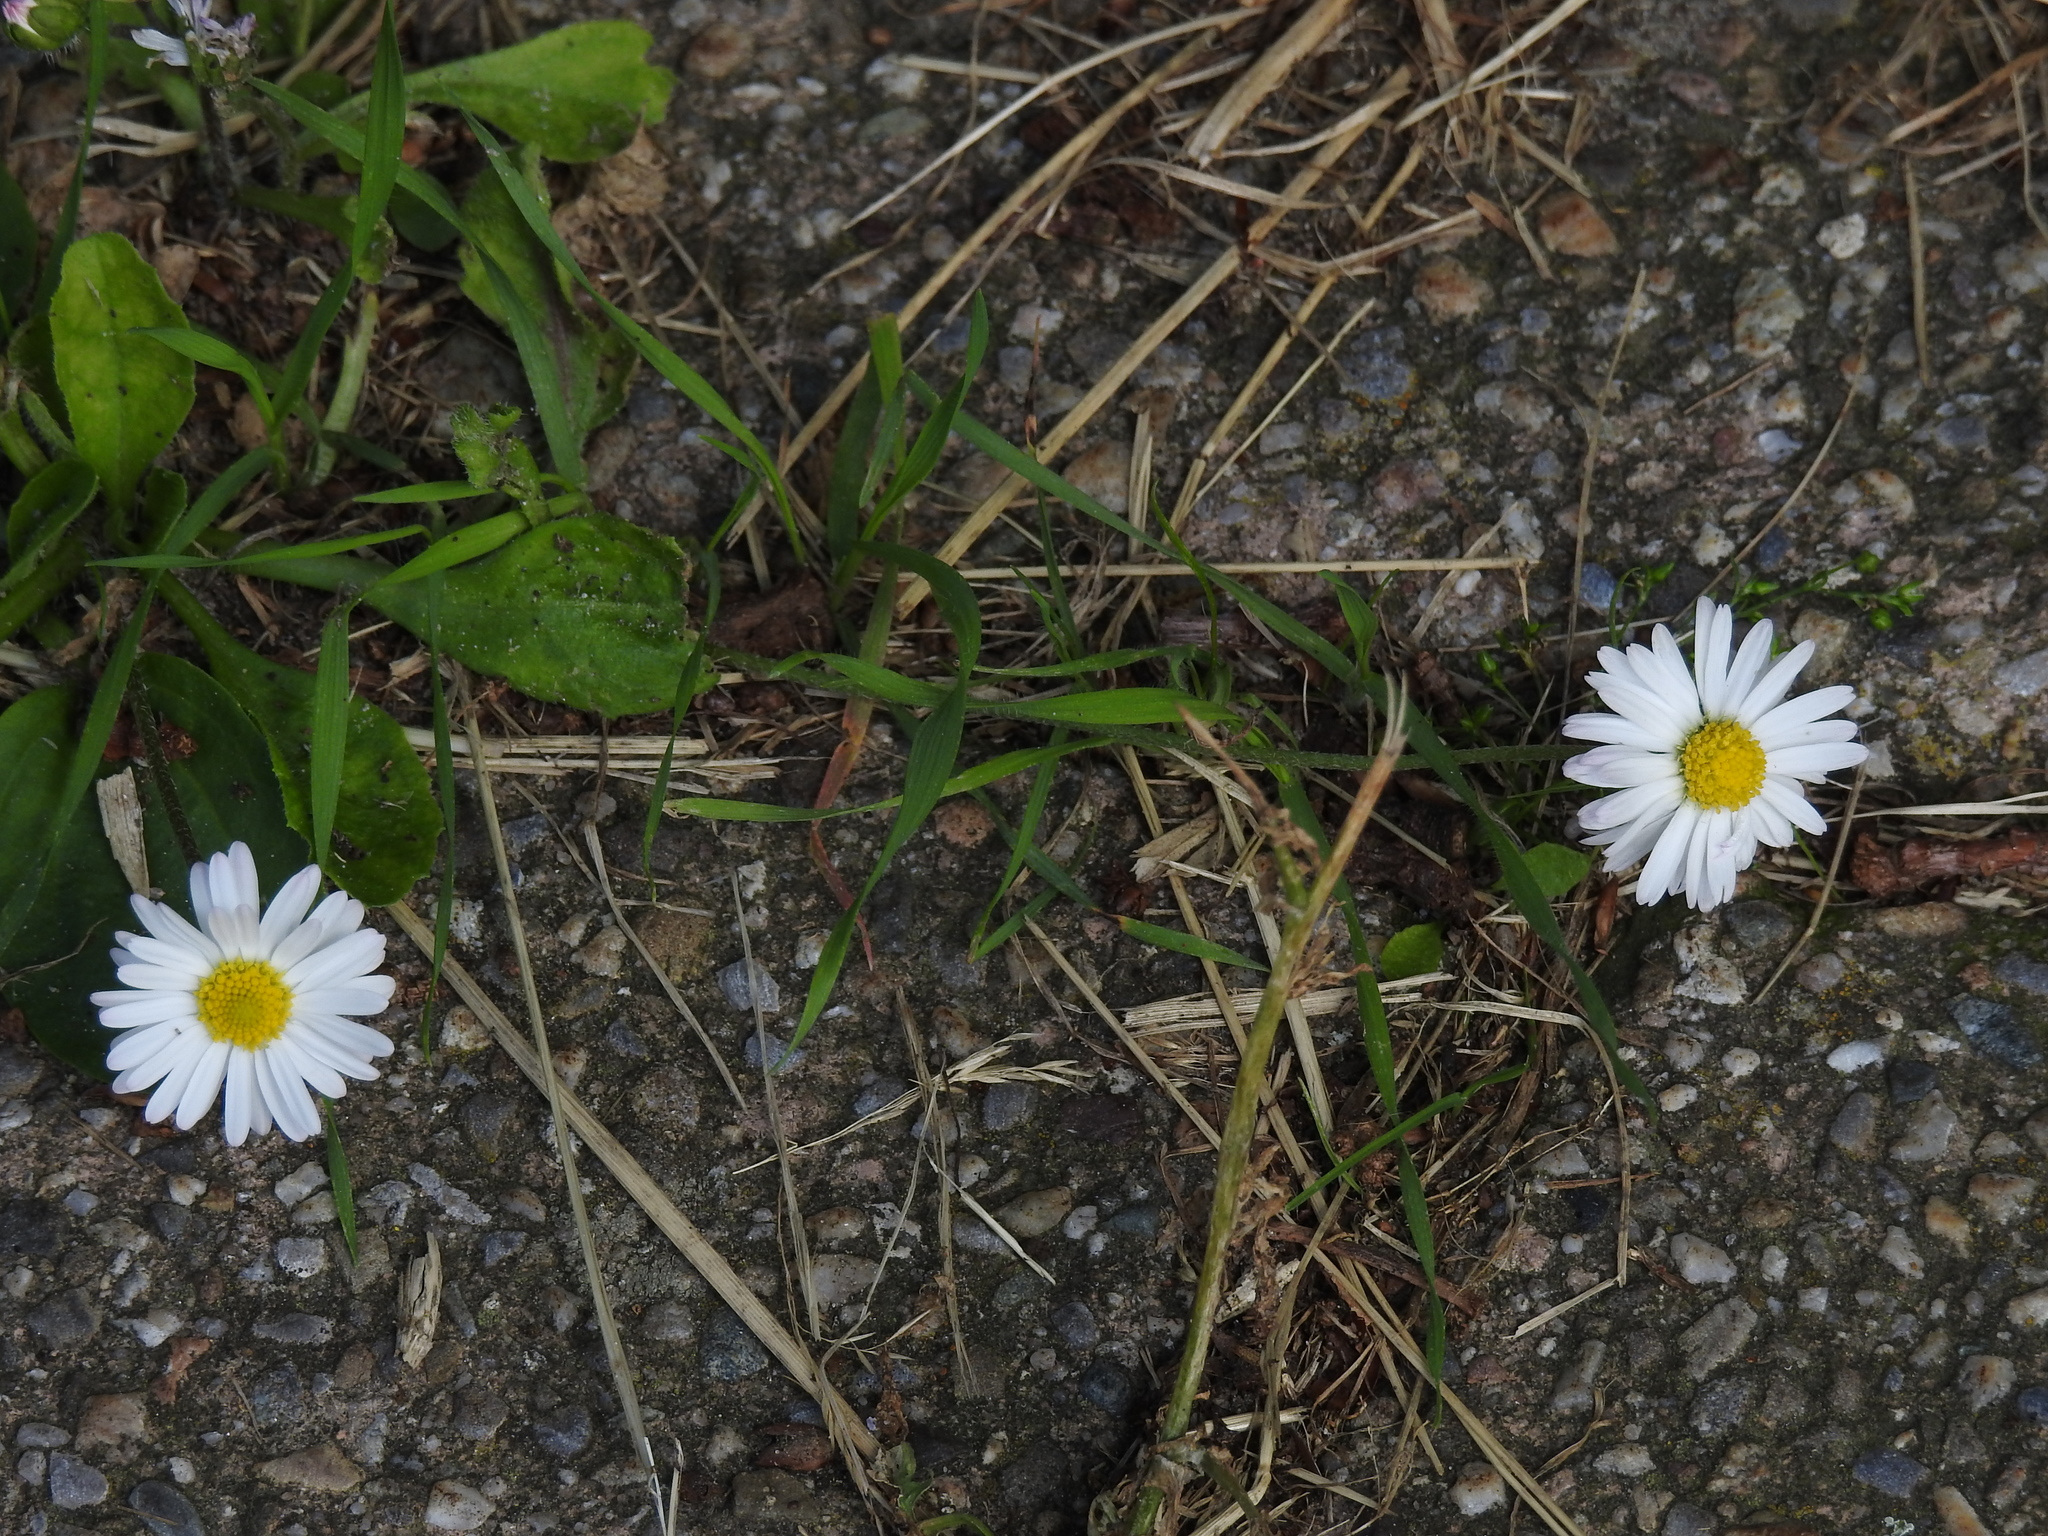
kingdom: Plantae
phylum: Tracheophyta
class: Magnoliopsida
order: Asterales
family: Asteraceae
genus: Bellis
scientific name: Bellis perennis
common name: Lawndaisy
